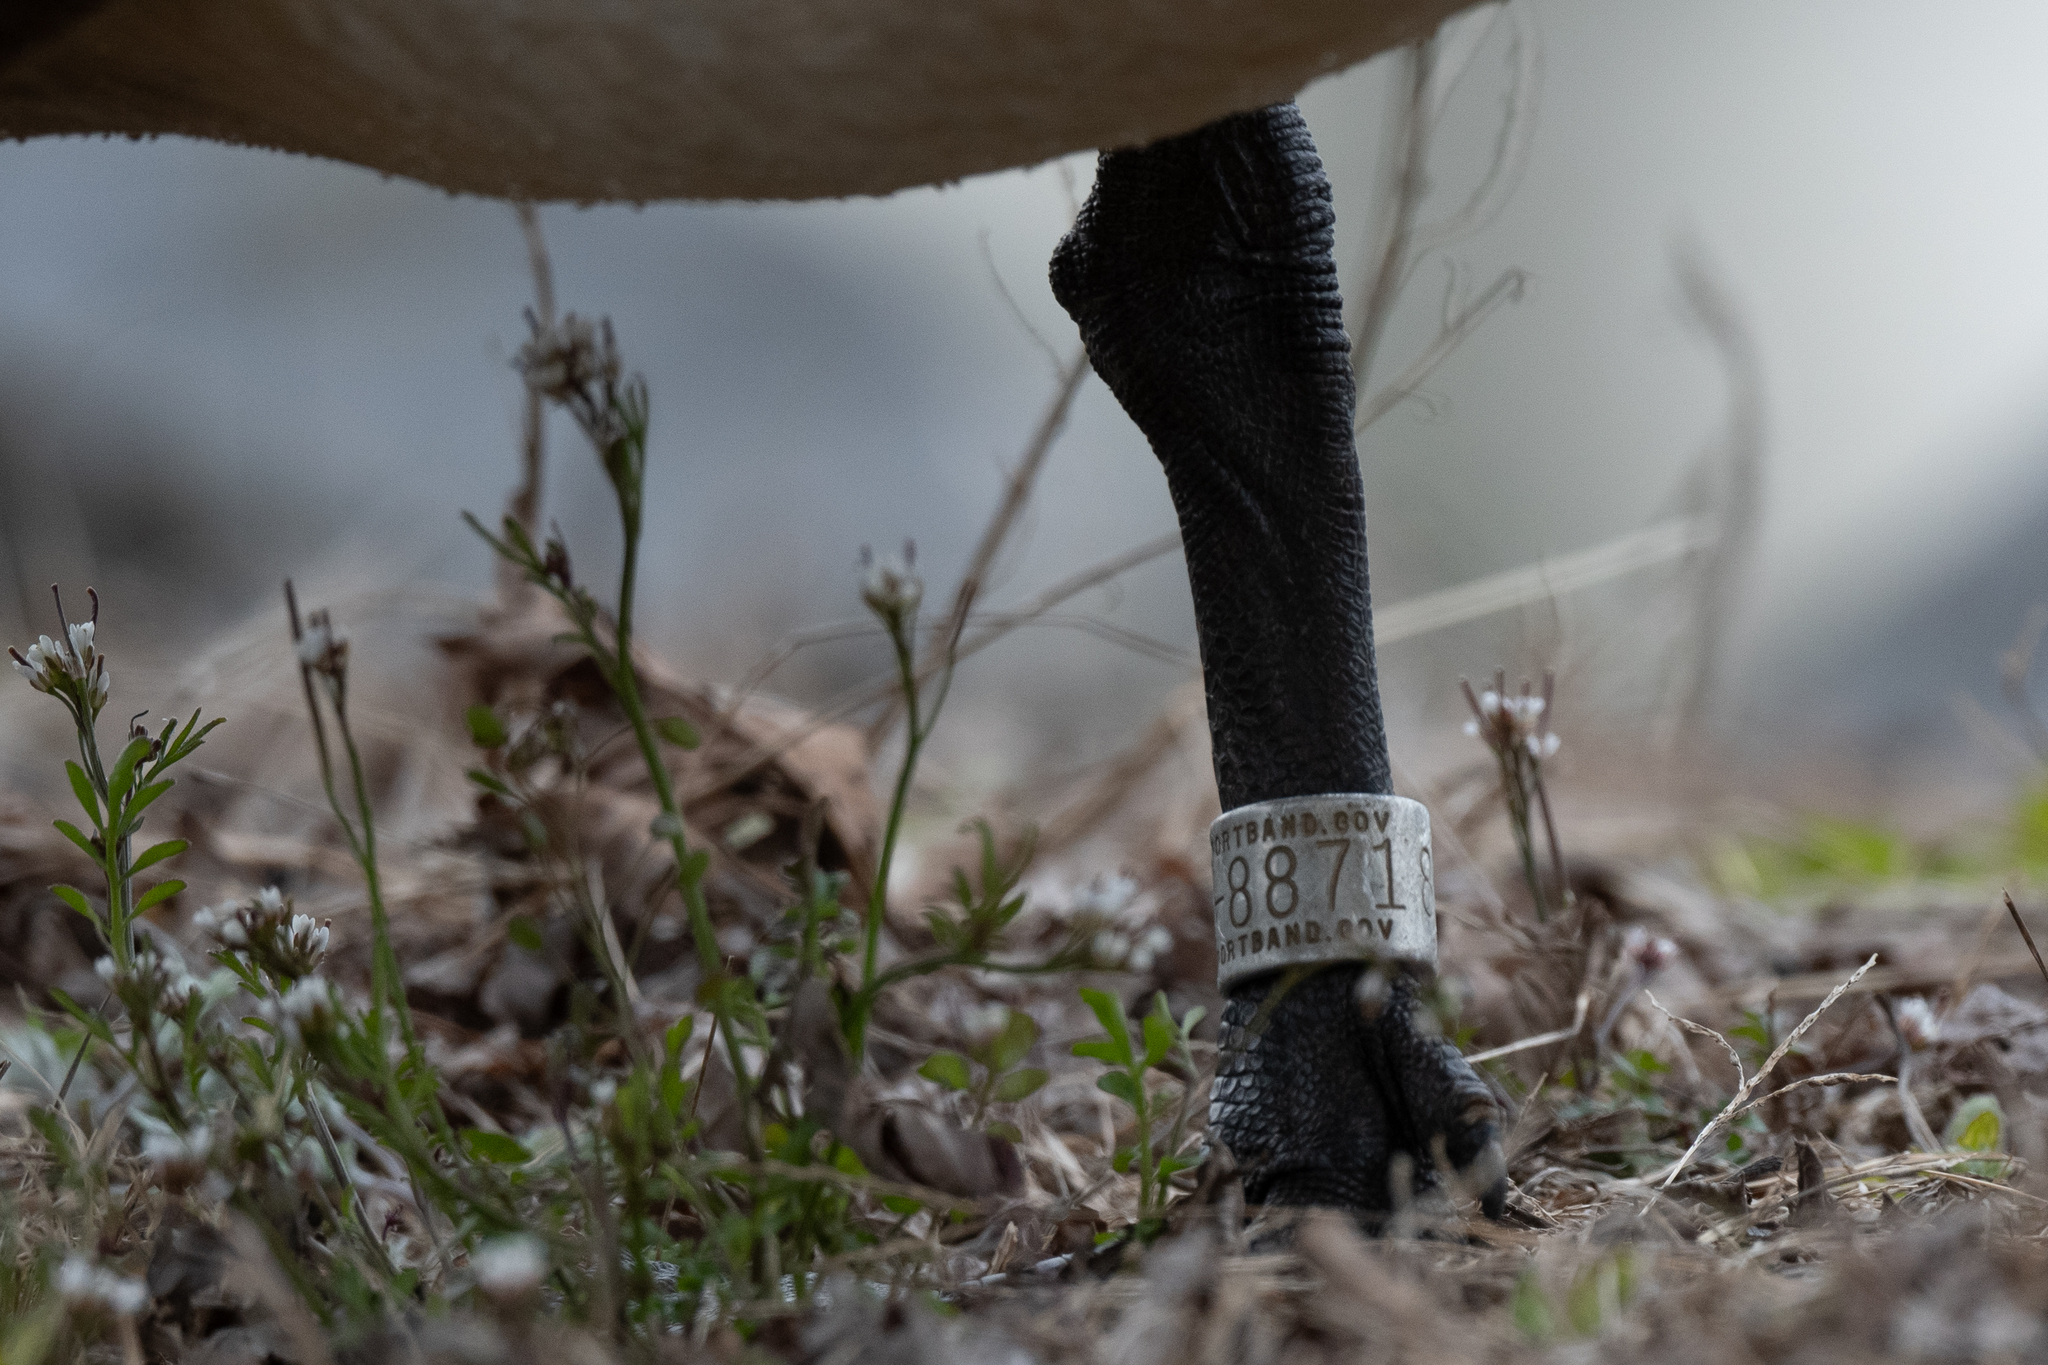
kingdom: Animalia
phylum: Chordata
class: Aves
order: Anseriformes
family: Anatidae
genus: Branta
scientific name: Branta canadensis
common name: Canada goose
